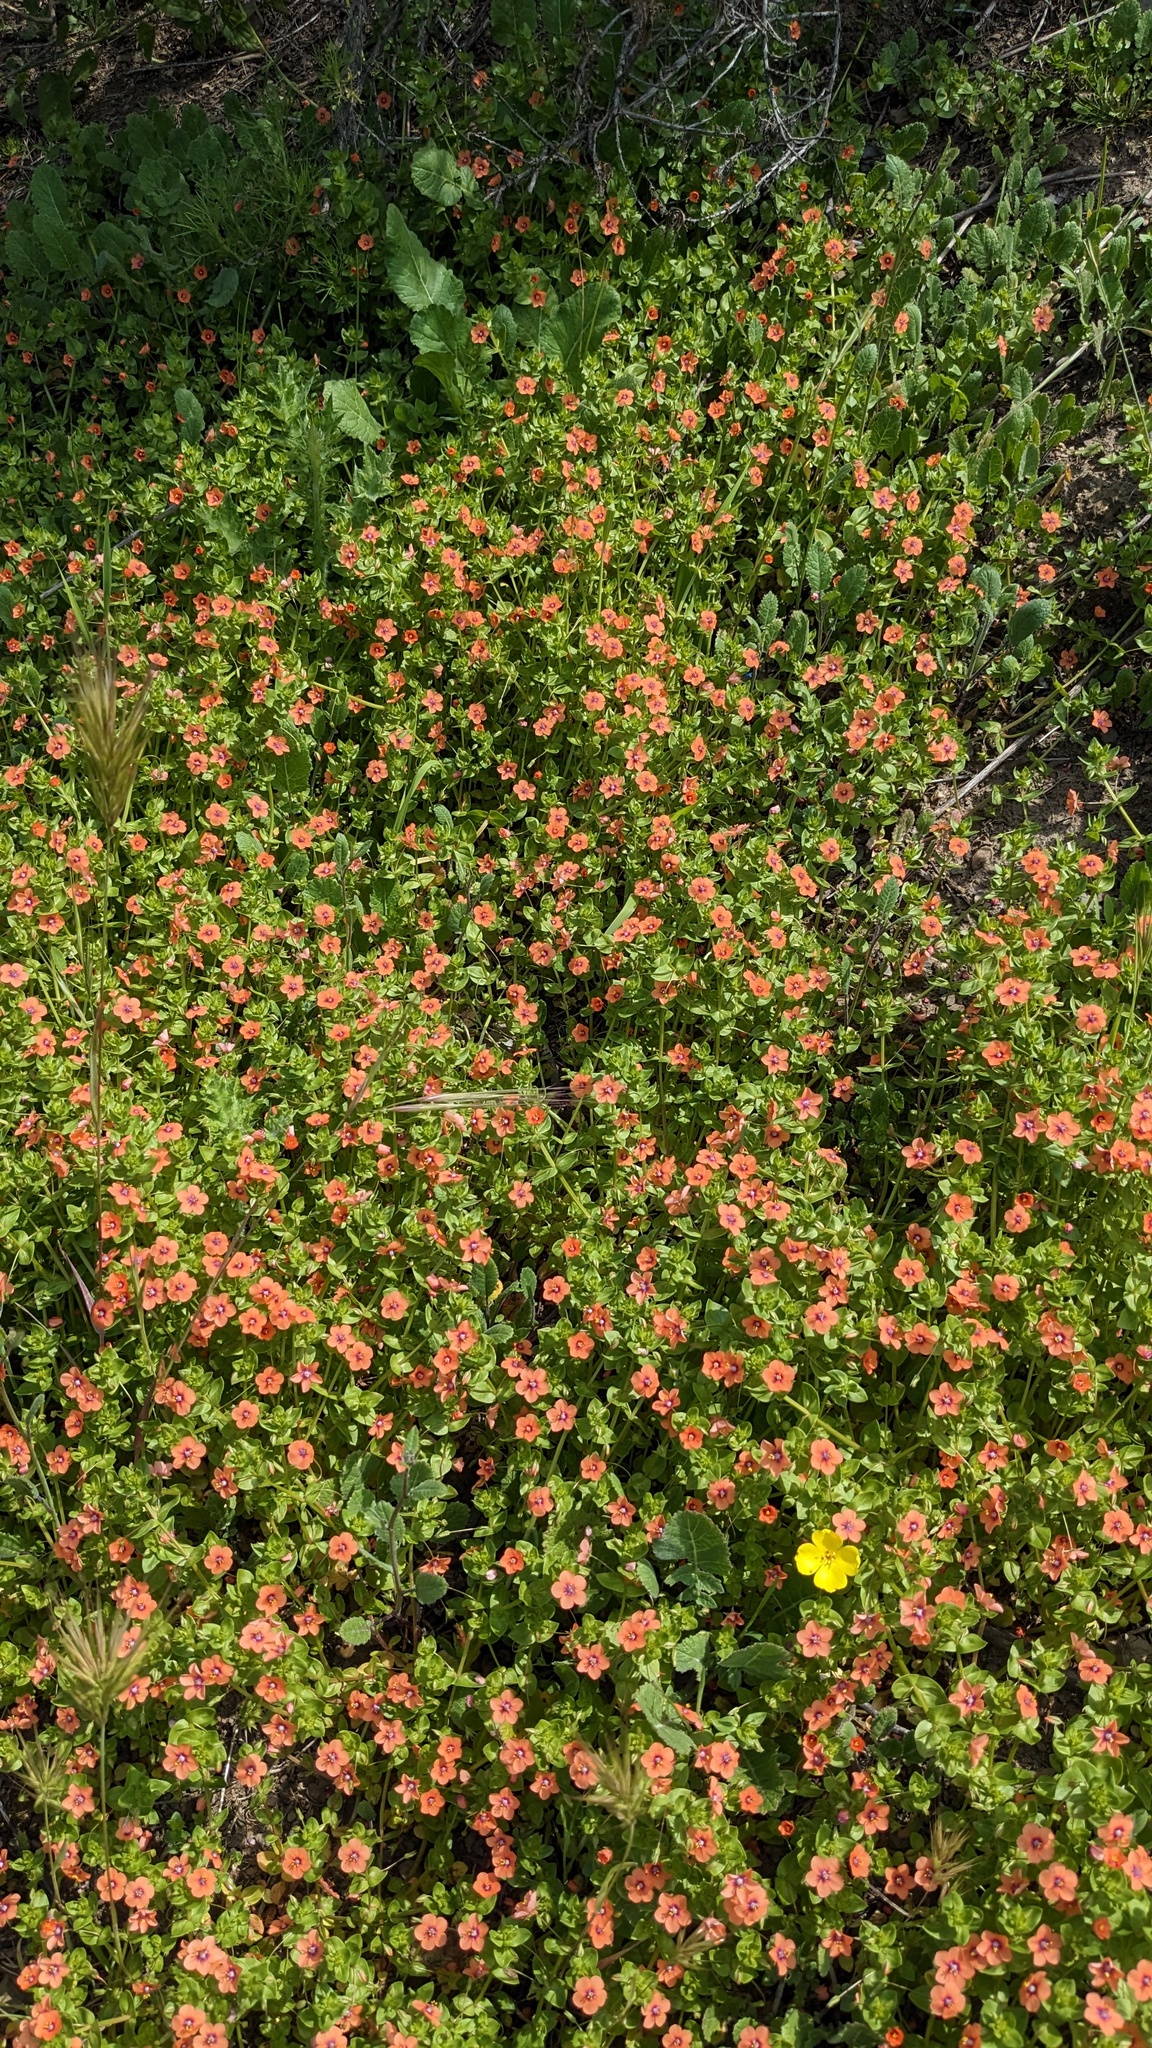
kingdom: Plantae
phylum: Tracheophyta
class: Magnoliopsida
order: Ericales
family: Primulaceae
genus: Lysimachia
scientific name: Lysimachia arvensis
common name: Scarlet pimpernel
